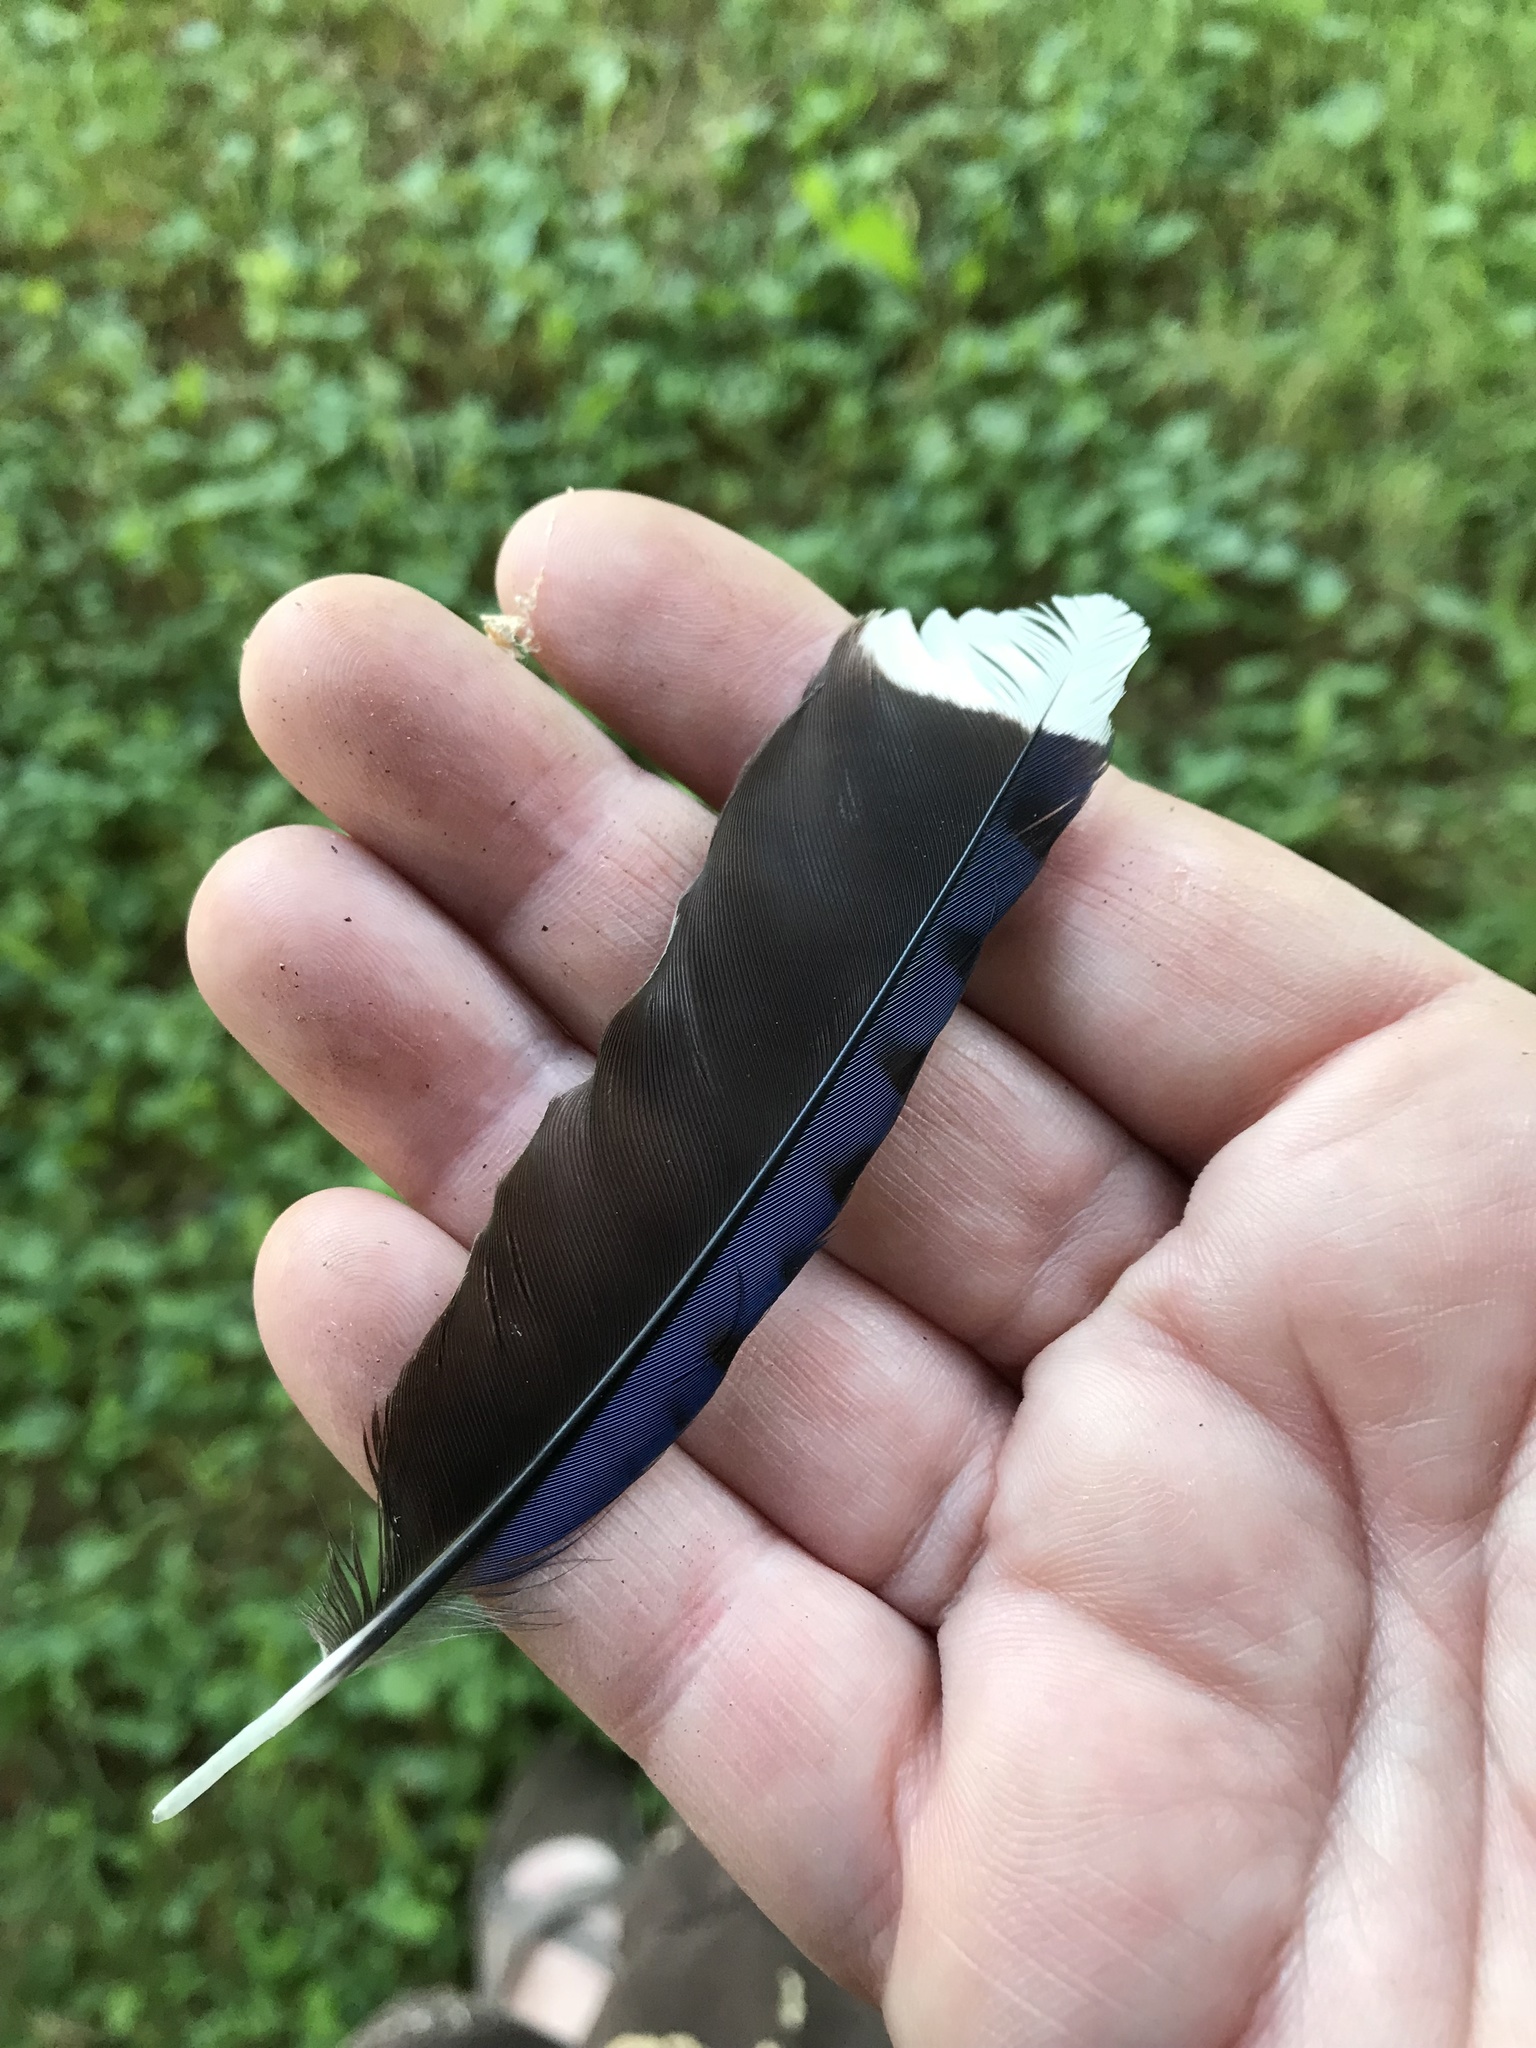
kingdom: Animalia
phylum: Chordata
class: Aves
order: Passeriformes
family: Corvidae
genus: Cyanocitta
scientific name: Cyanocitta cristata
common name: Blue jay
